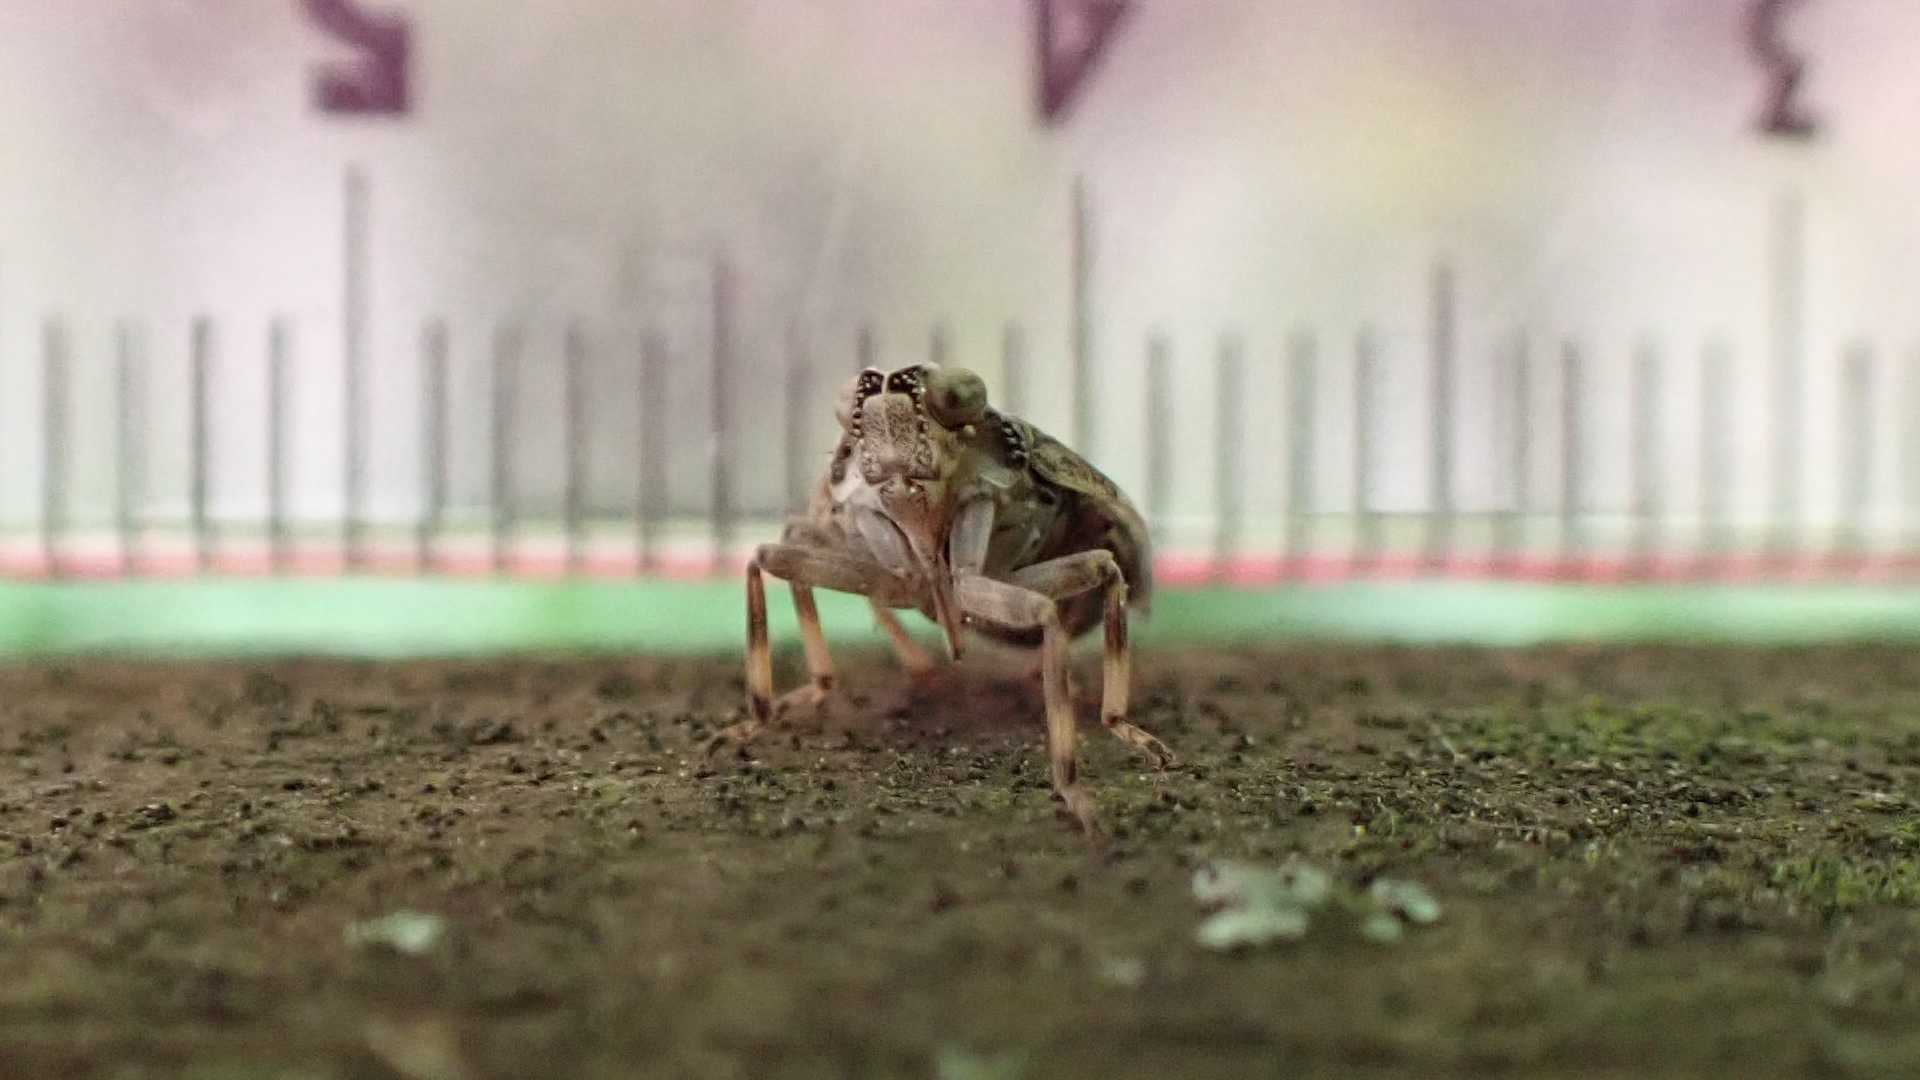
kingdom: Animalia
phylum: Arthropoda
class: Insecta
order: Hemiptera
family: Issidae
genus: Issus
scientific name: Issus coleoptratus
